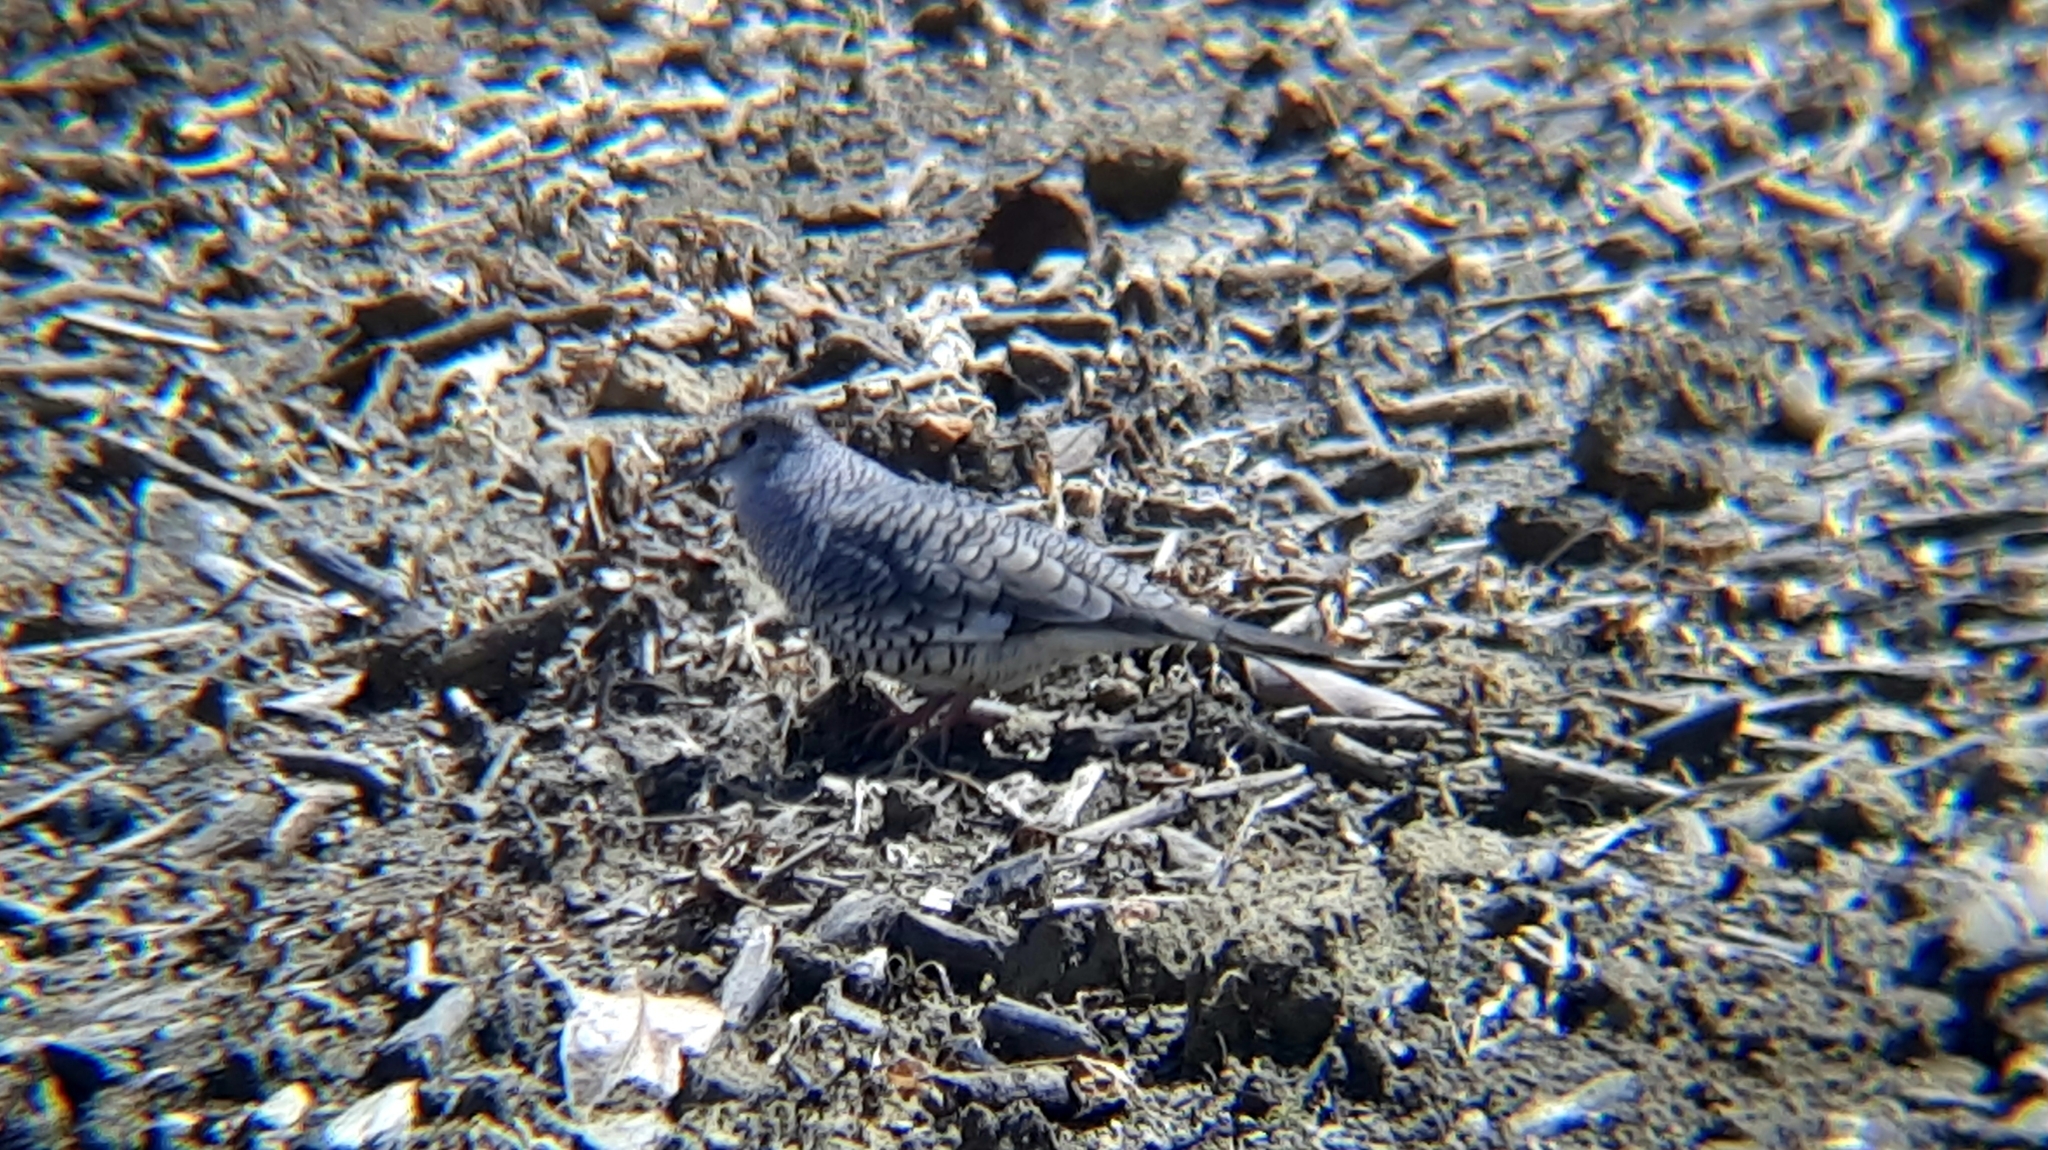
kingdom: Animalia
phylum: Chordata
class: Aves
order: Columbiformes
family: Columbidae
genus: Columbina
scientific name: Columbina squammata
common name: Scaled dove
